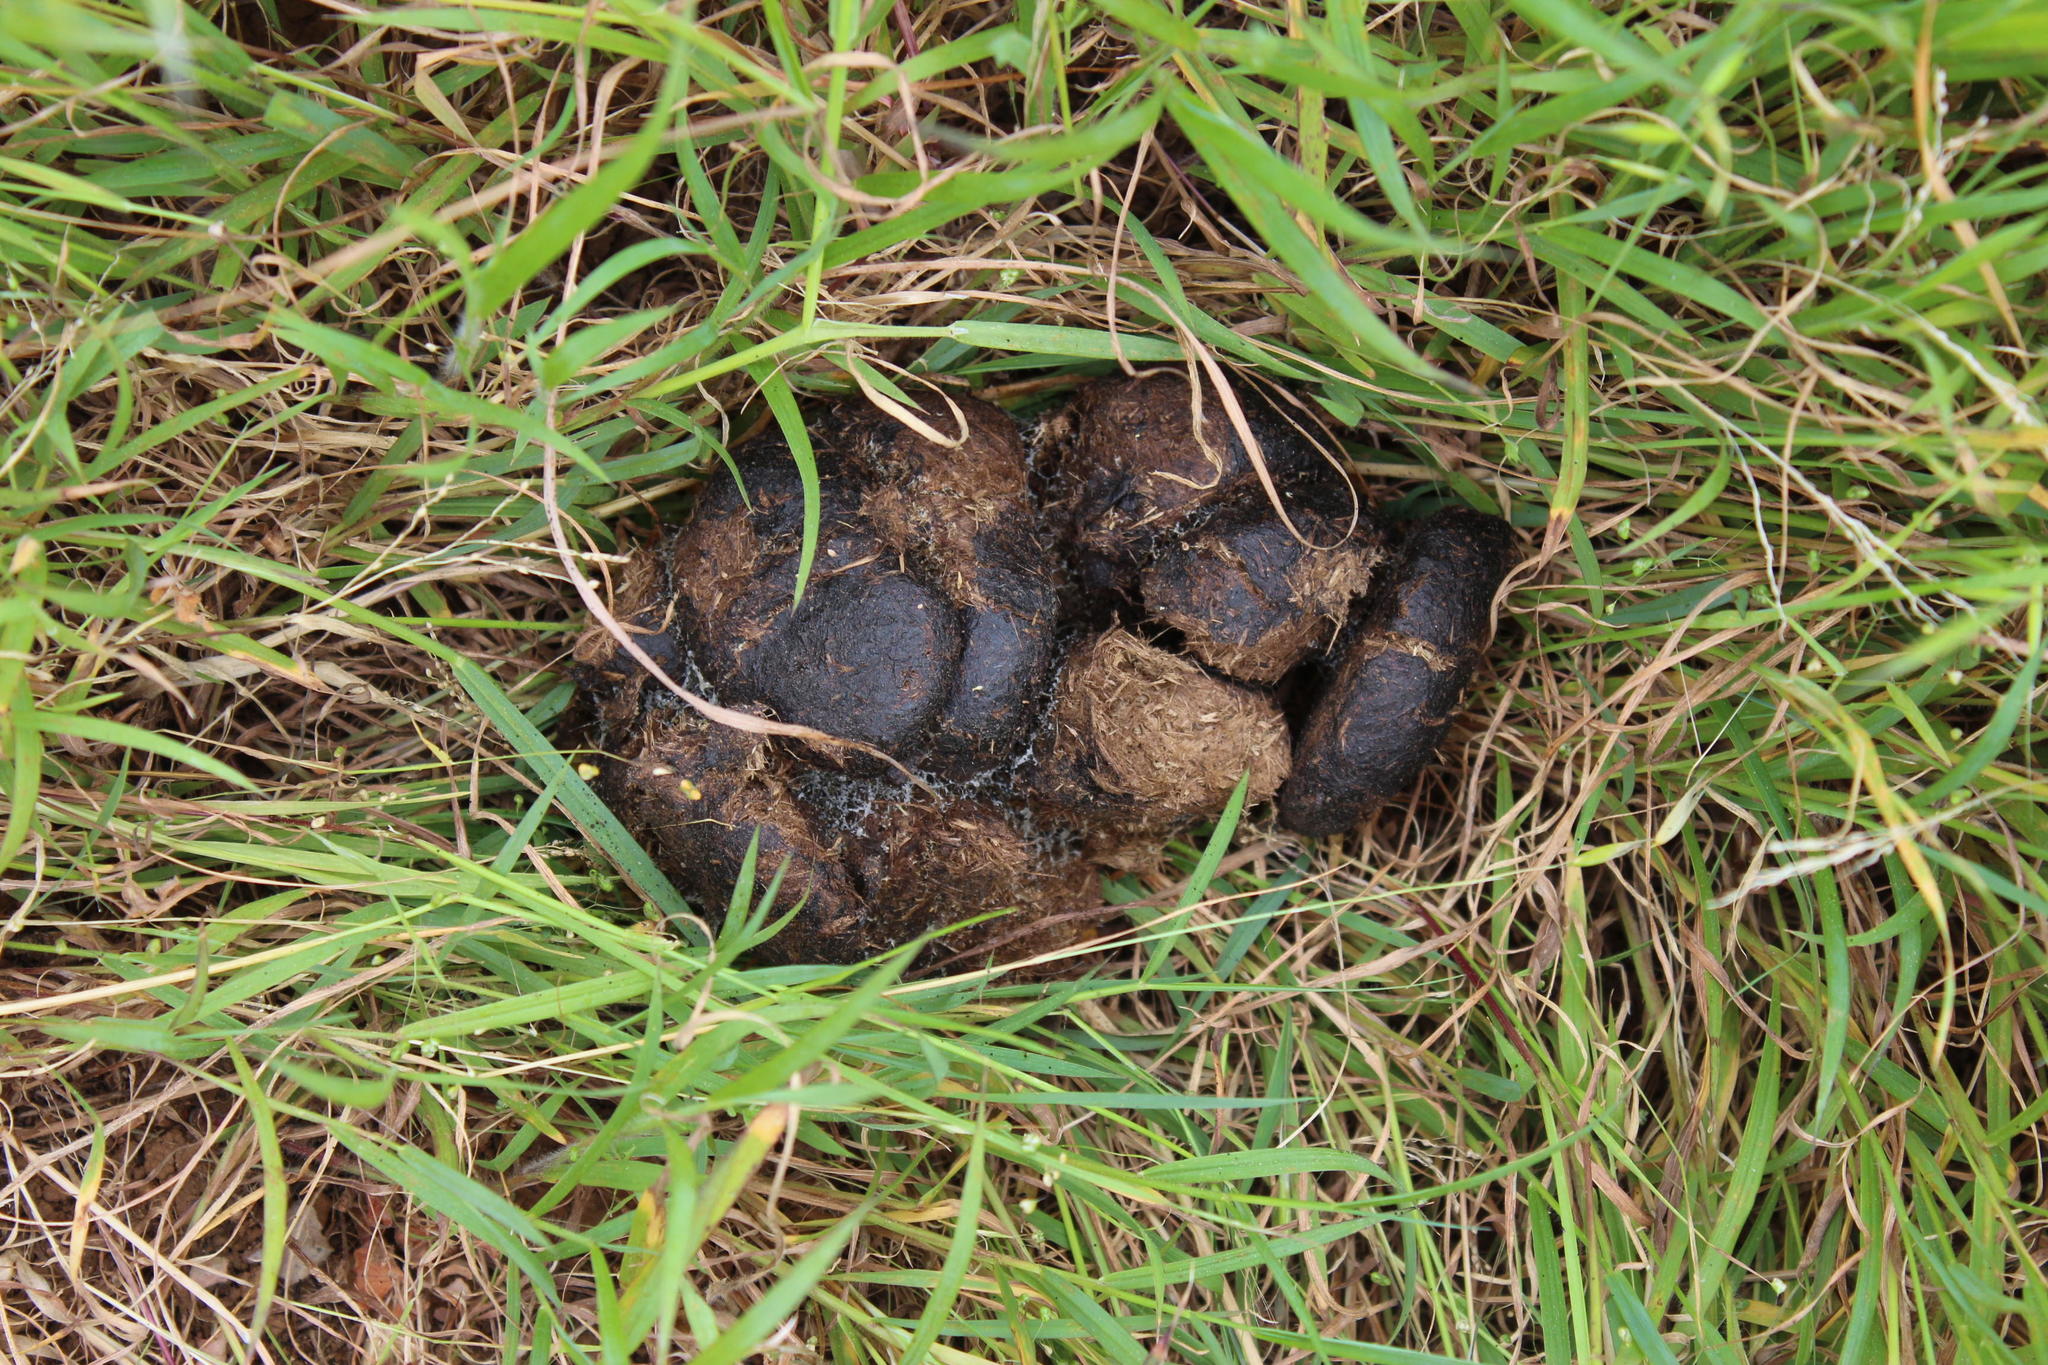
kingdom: Animalia
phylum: Chordata
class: Mammalia
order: Perissodactyla
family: Equidae
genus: Equus
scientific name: Equus quagga
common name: Plains zebra
